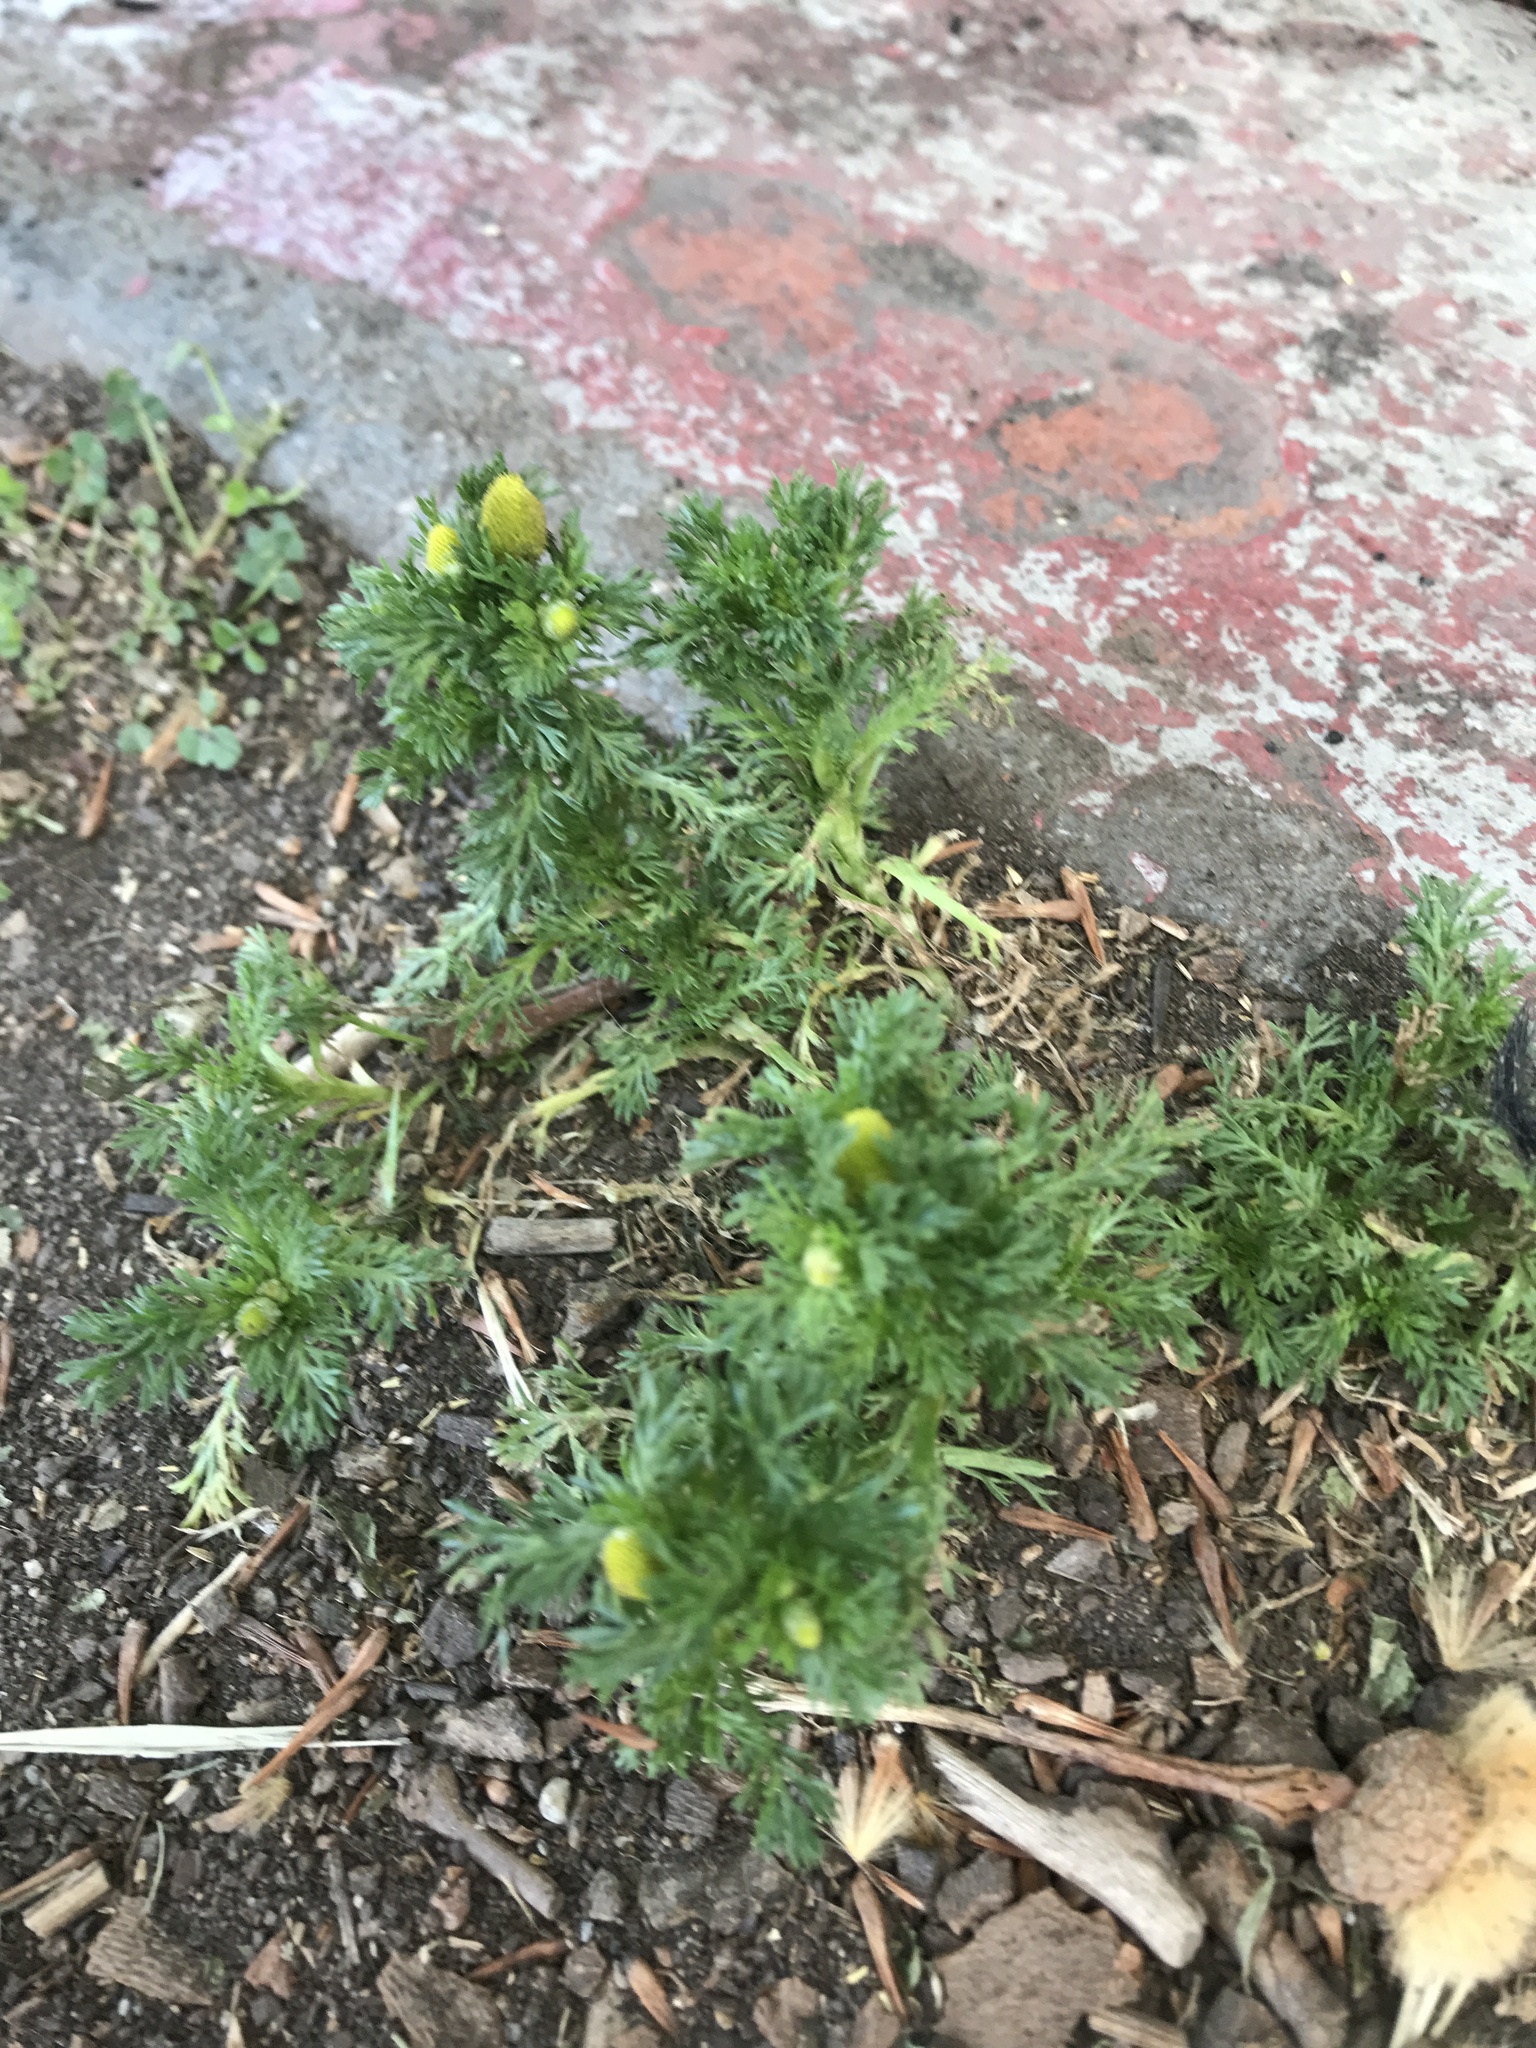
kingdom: Plantae
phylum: Tracheophyta
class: Magnoliopsida
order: Asterales
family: Asteraceae
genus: Matricaria
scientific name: Matricaria discoidea
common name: Disc mayweed
